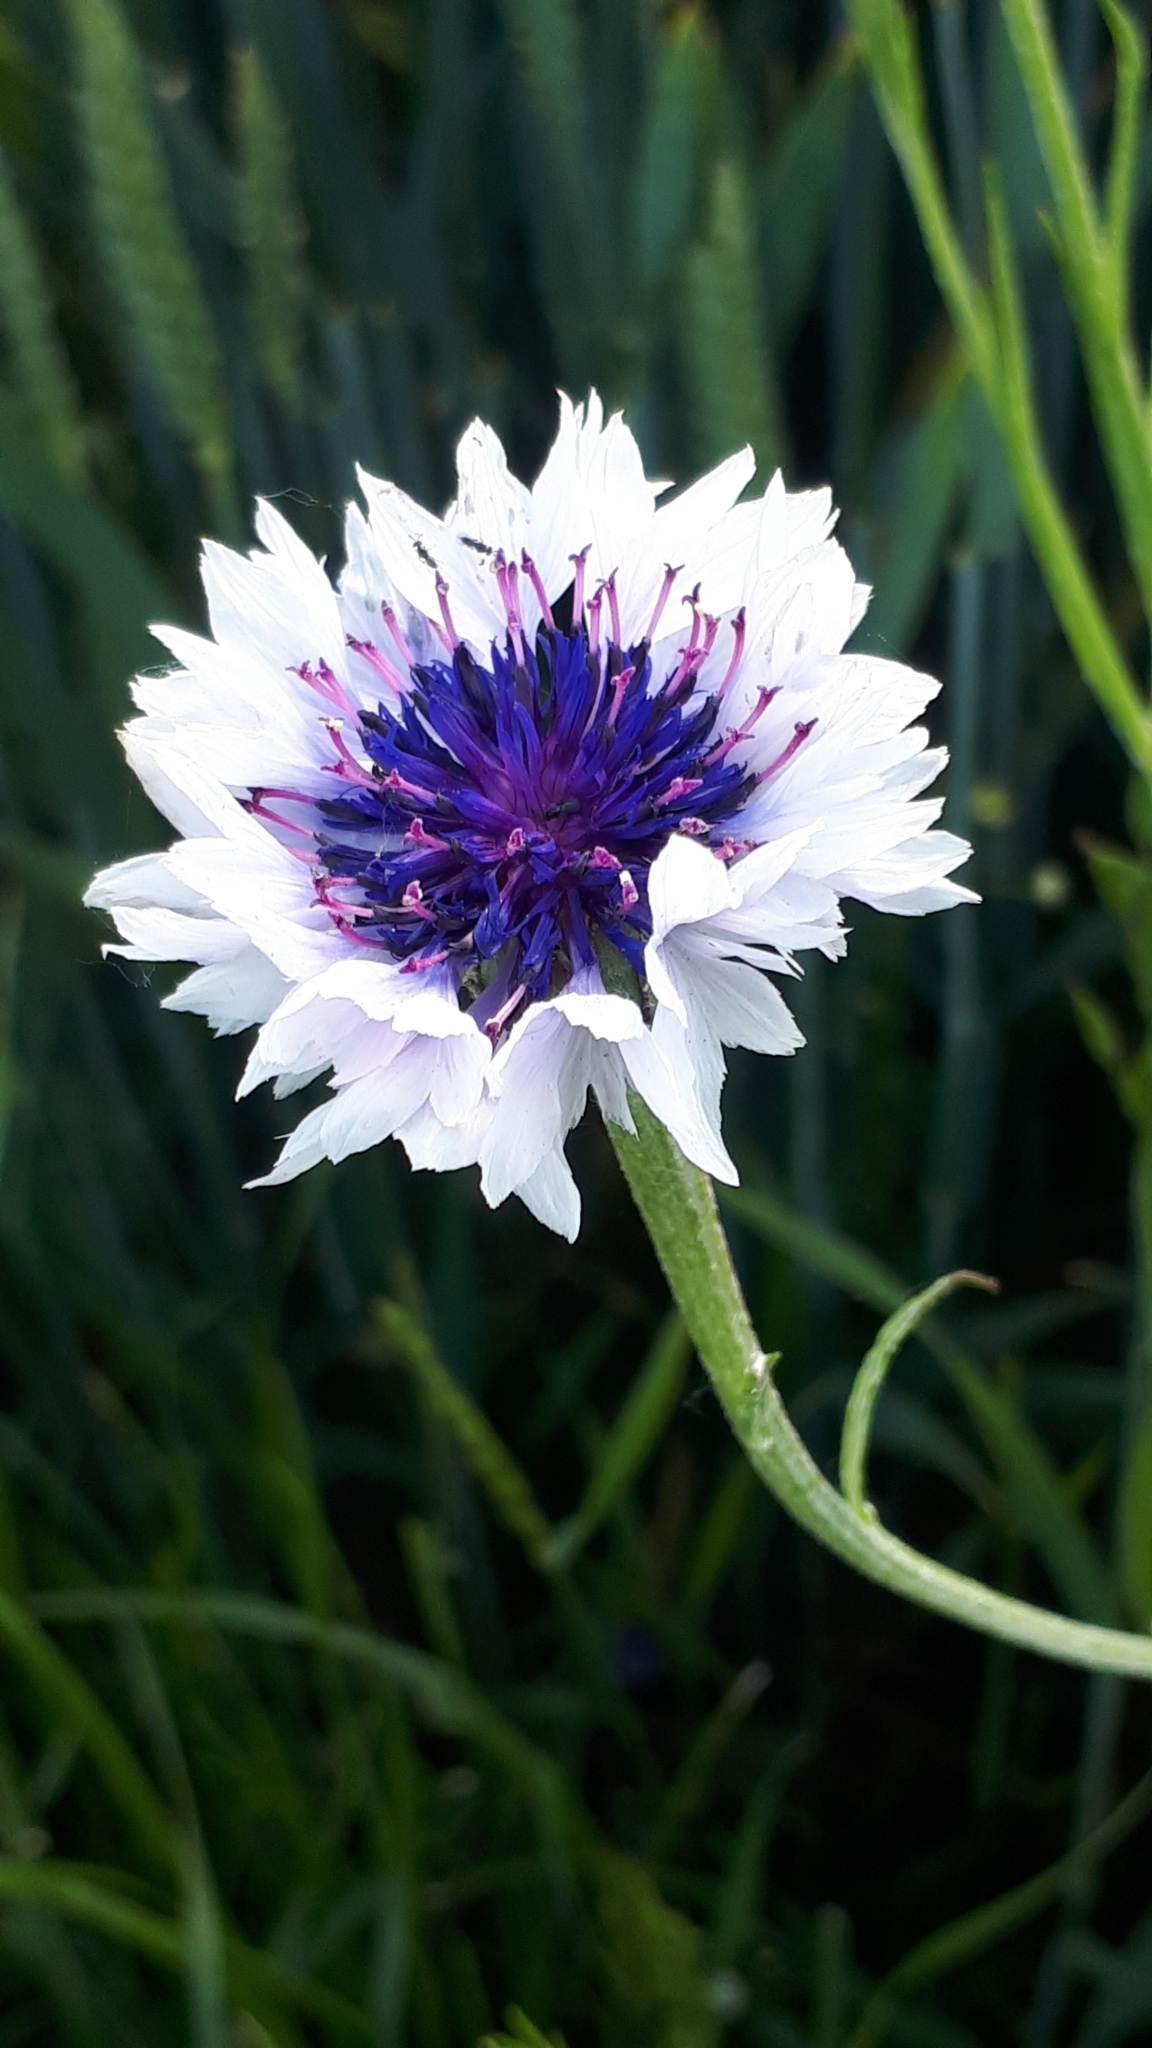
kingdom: Plantae
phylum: Tracheophyta
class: Magnoliopsida
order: Asterales
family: Asteraceae
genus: Centaurea
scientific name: Centaurea cyanus
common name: Cornflower
